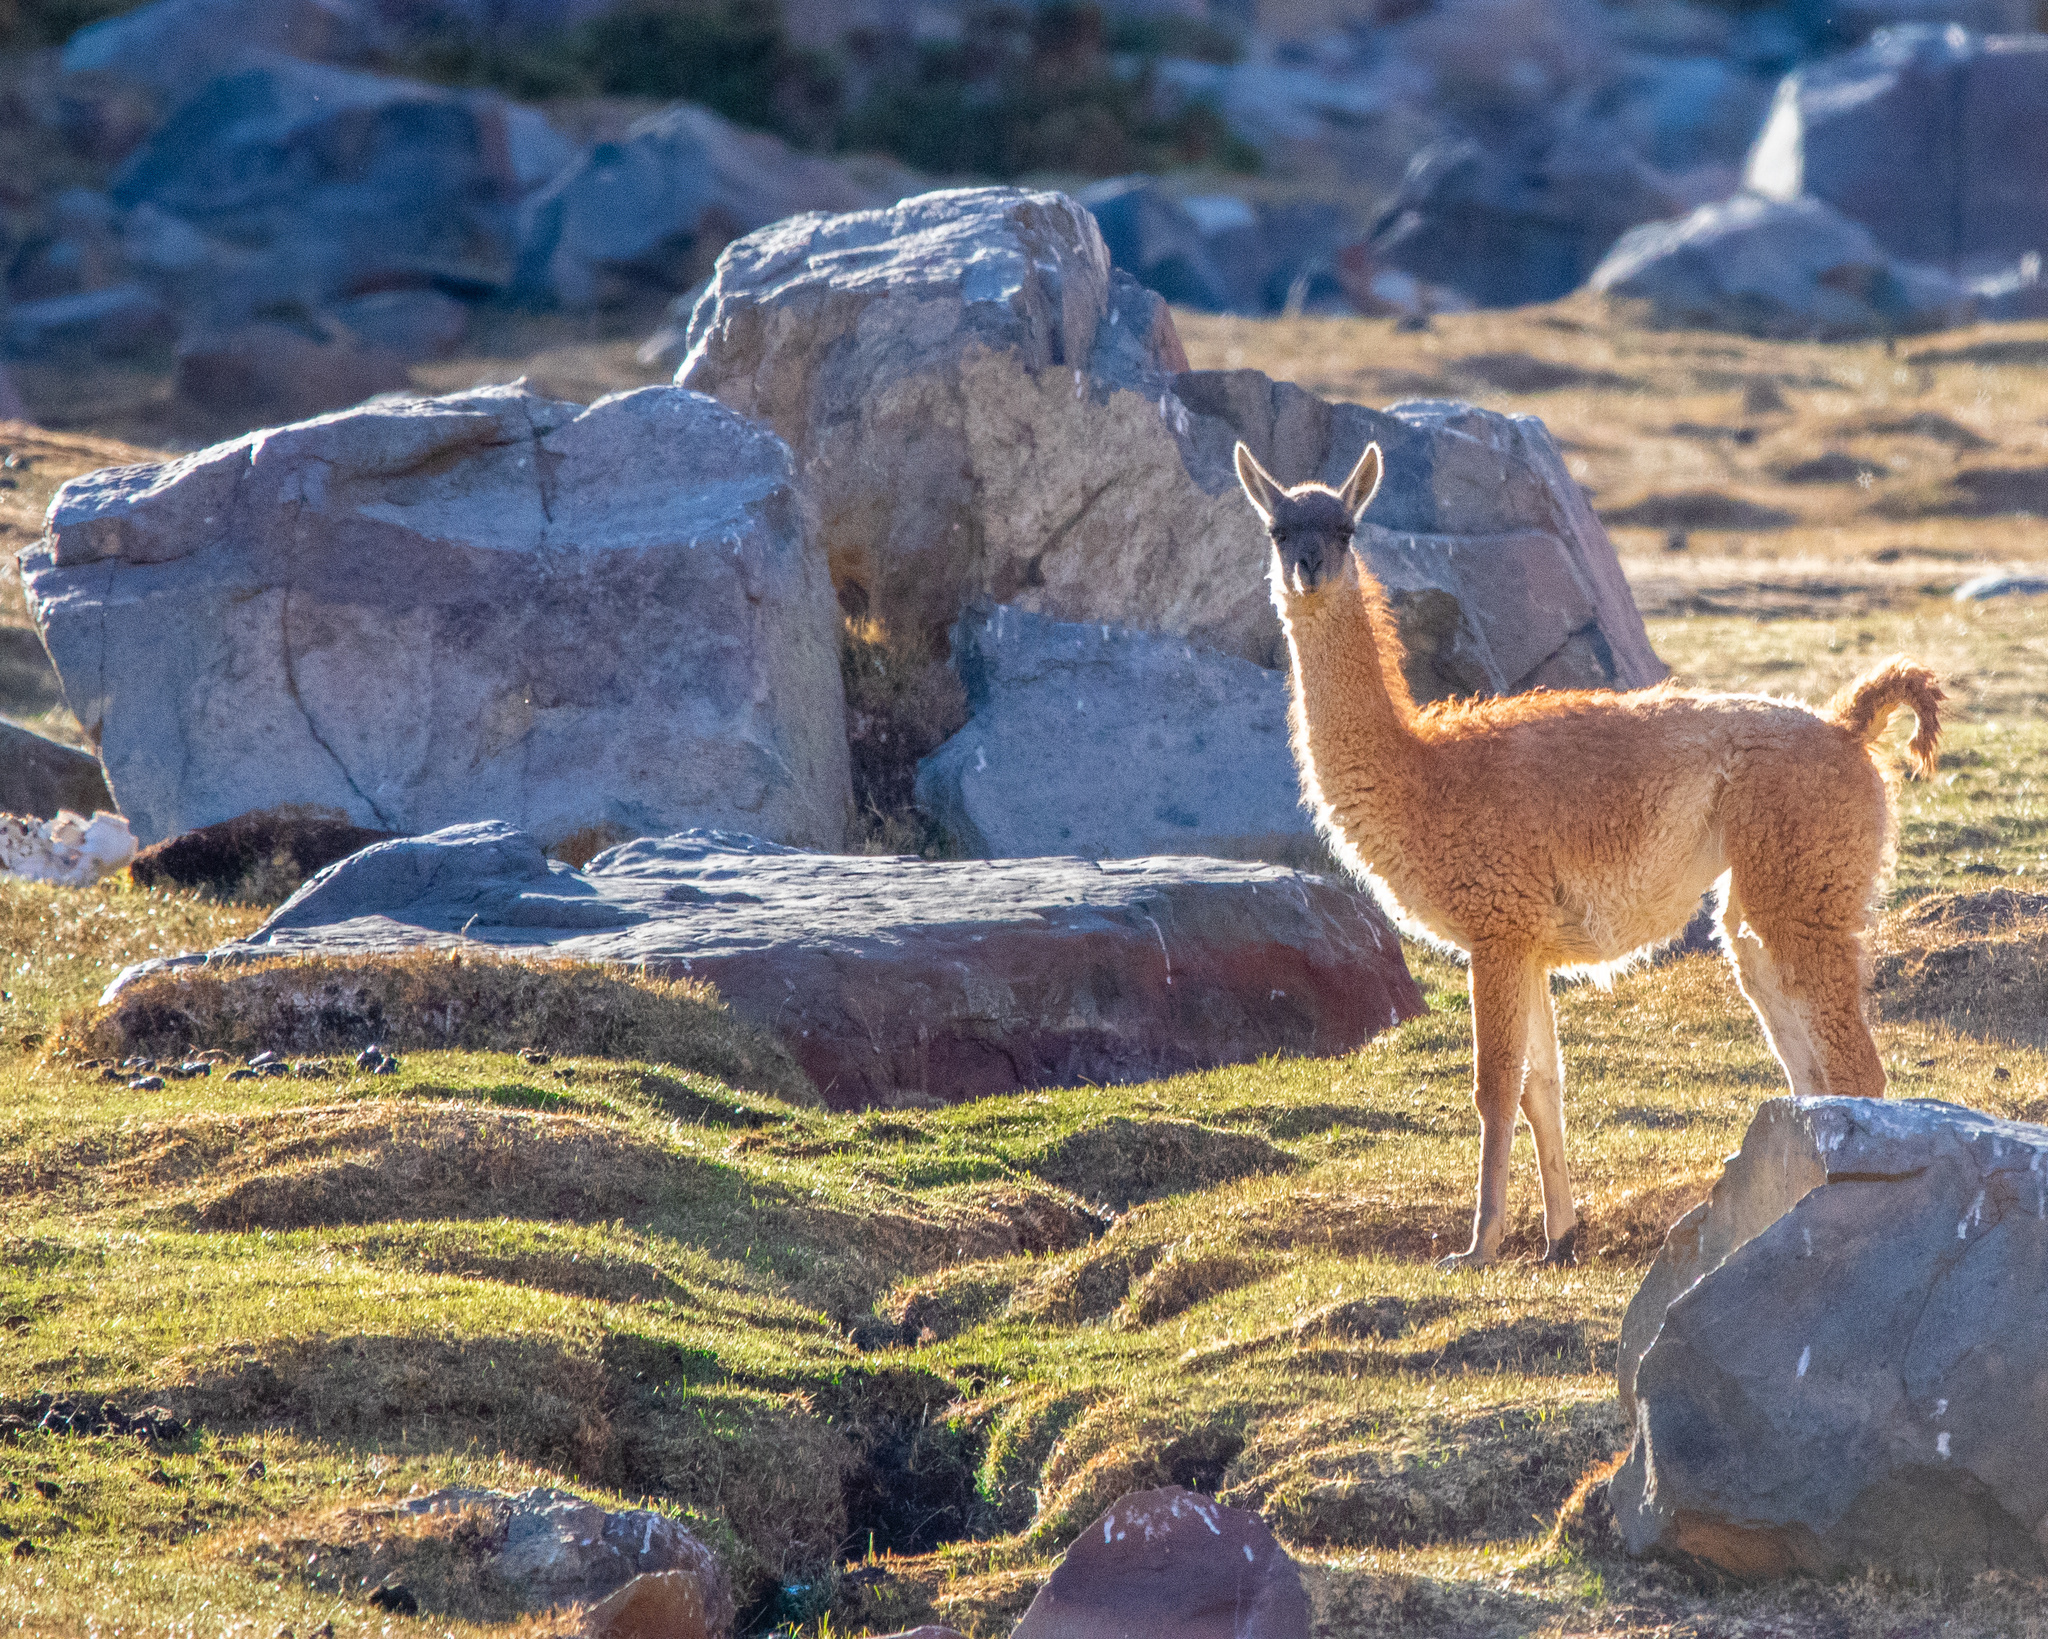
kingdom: Animalia
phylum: Chordata
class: Mammalia
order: Artiodactyla
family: Camelidae
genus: Lama
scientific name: Lama glama
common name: Llama
